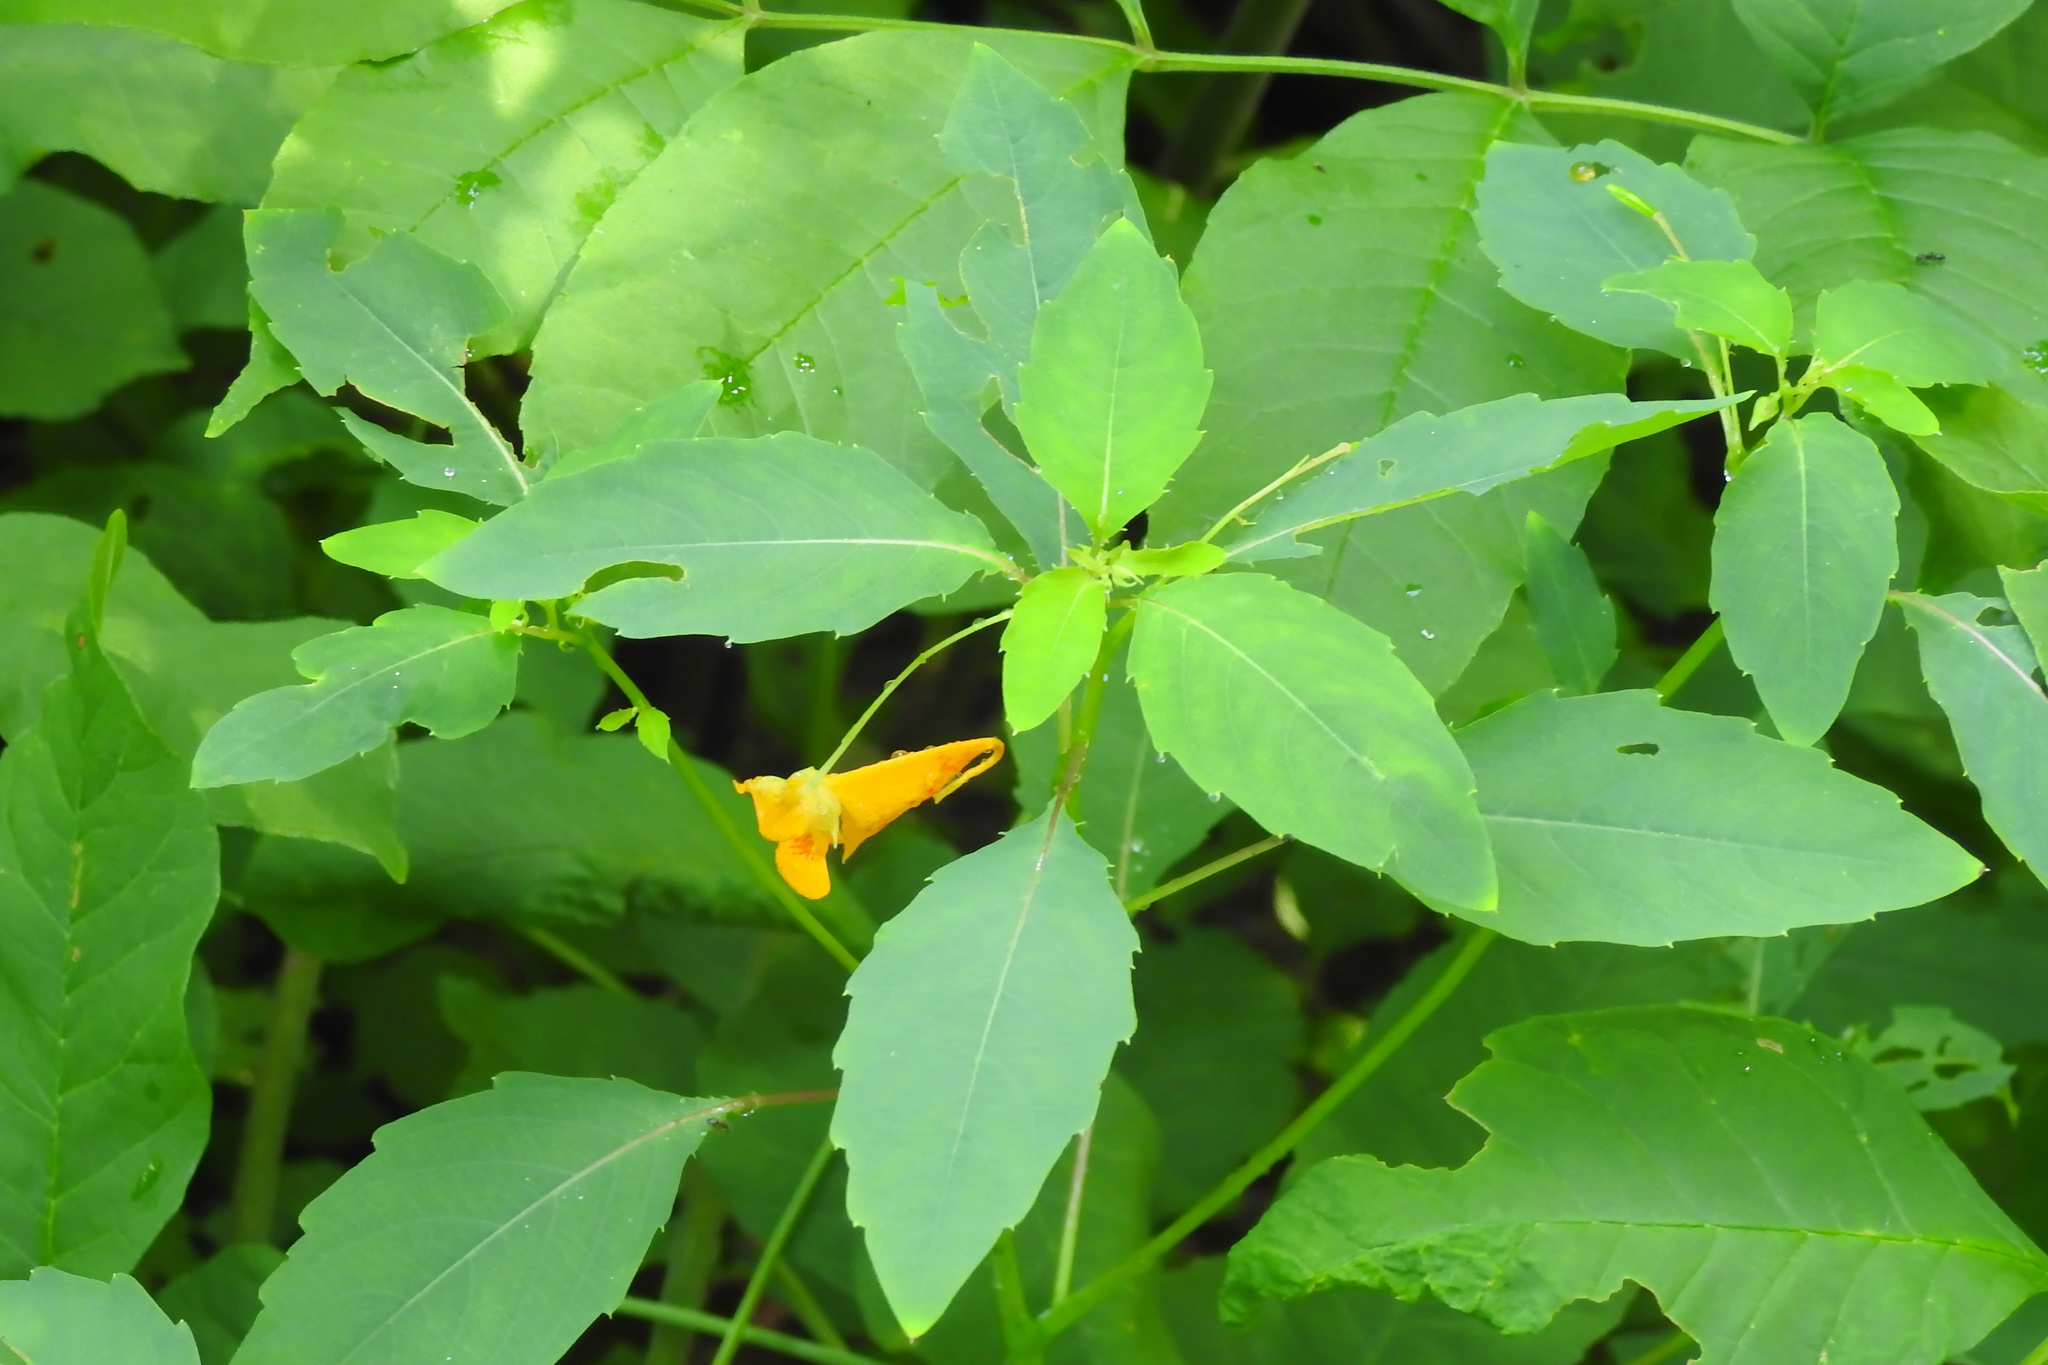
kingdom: Plantae
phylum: Tracheophyta
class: Magnoliopsida
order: Ericales
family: Balsaminaceae
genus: Impatiens
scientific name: Impatiens capensis
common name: Orange balsam
